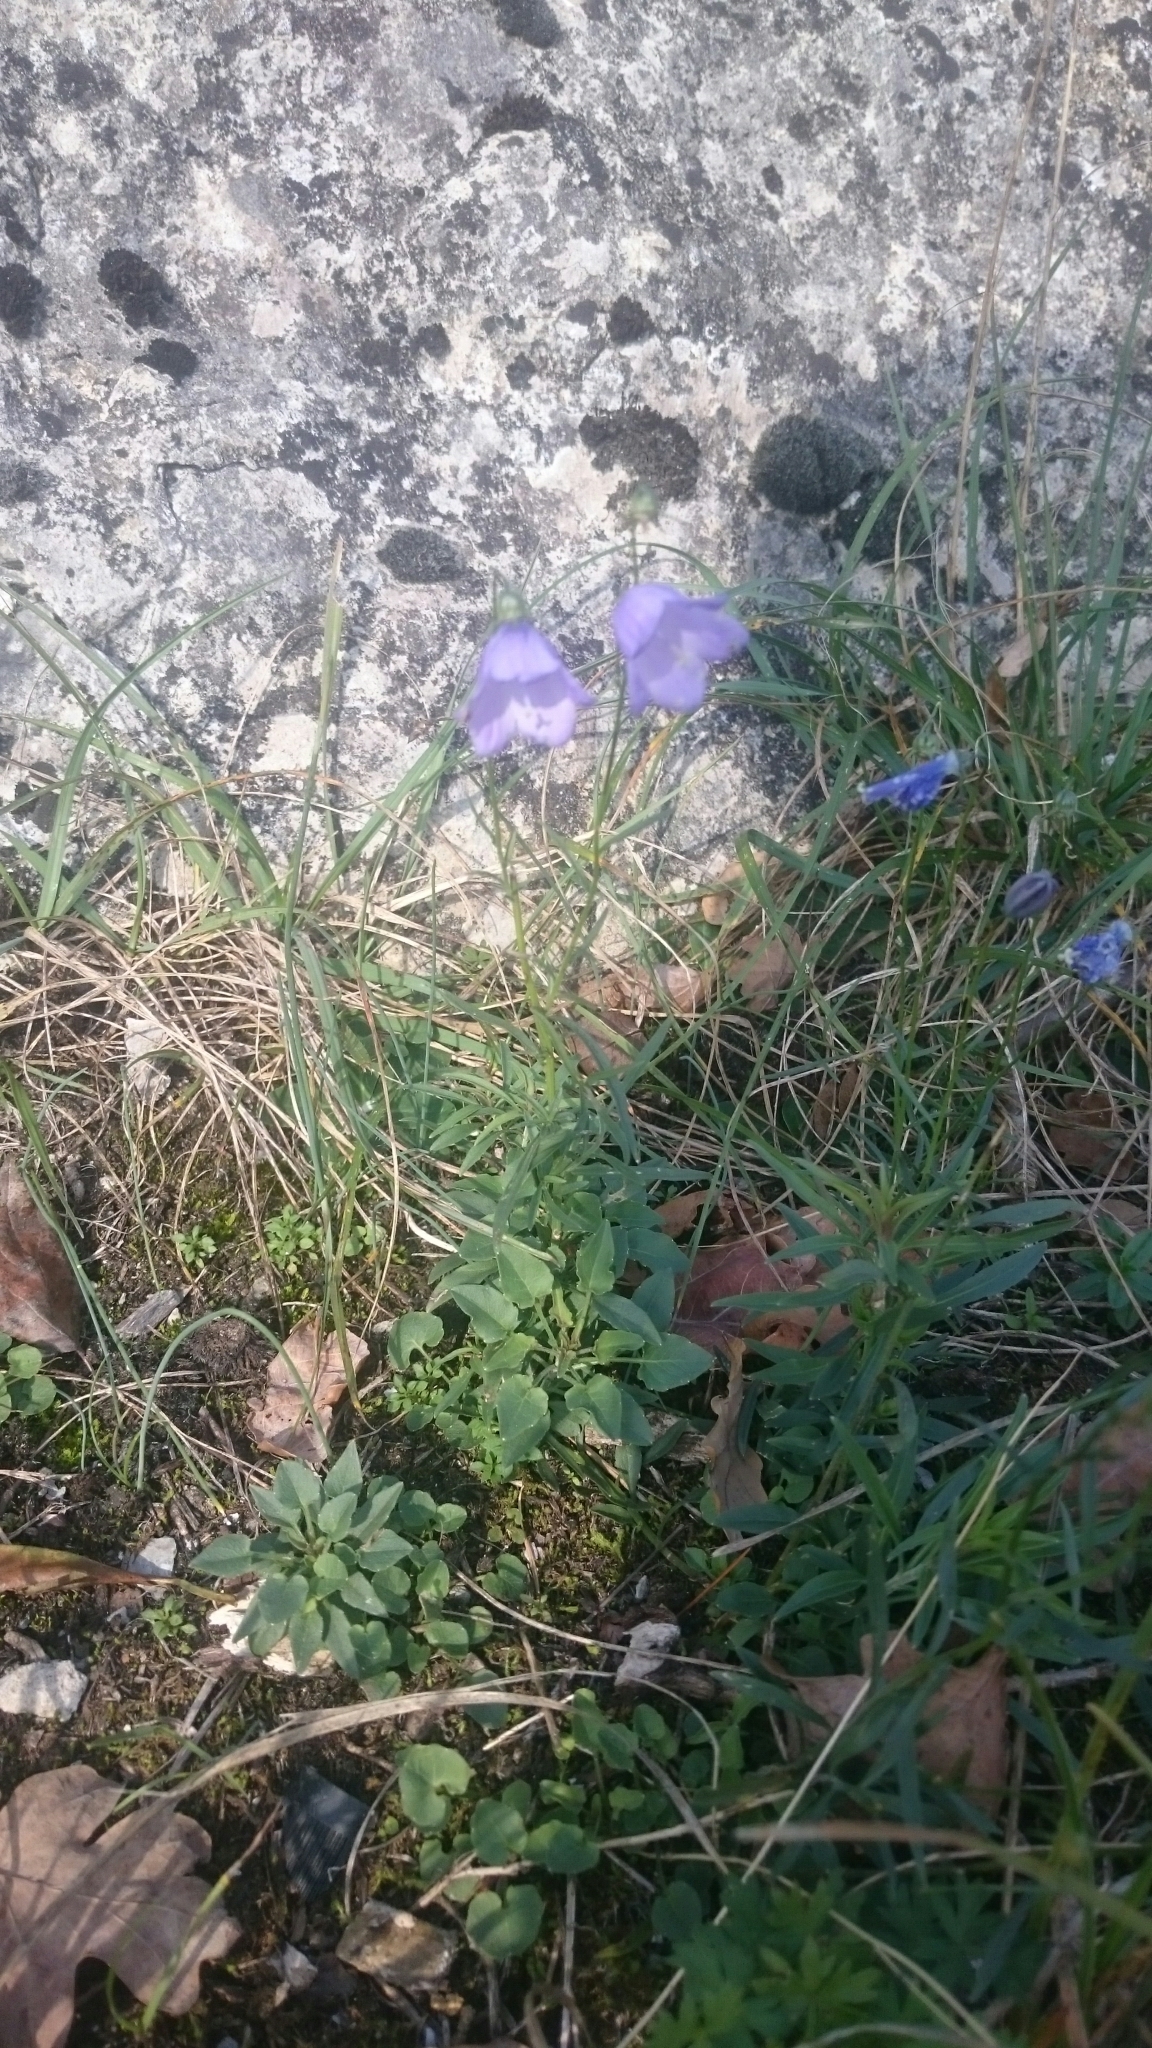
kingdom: Plantae
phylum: Tracheophyta
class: Magnoliopsida
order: Asterales
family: Campanulaceae
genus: Campanula
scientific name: Campanula rotundifolia
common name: Harebell
